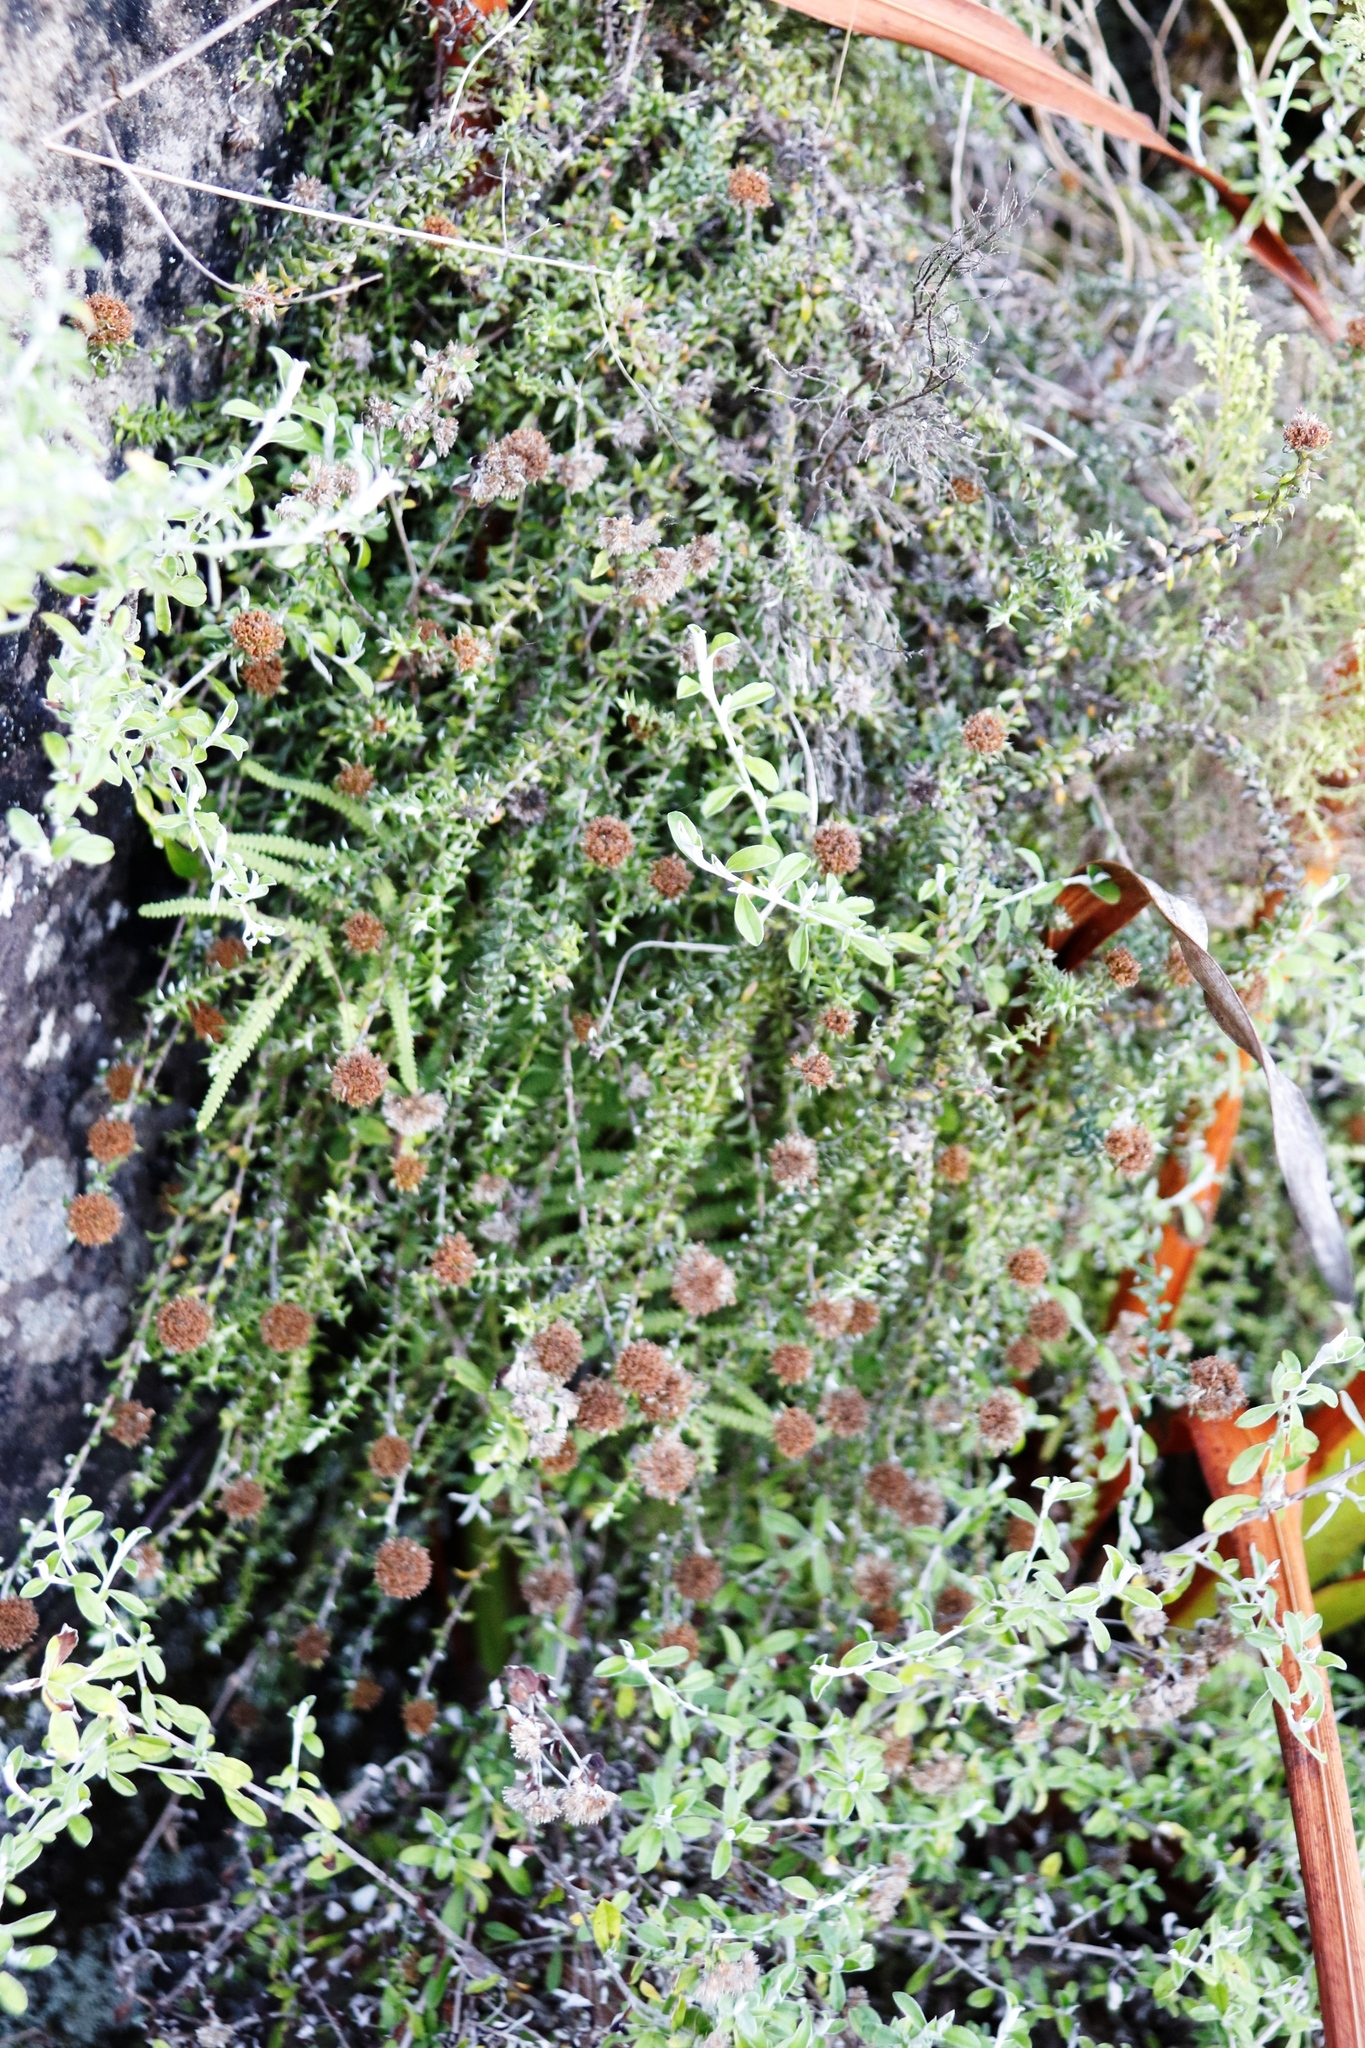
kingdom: Plantae
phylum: Tracheophyta
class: Magnoliopsida
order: Asterales
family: Asteraceae
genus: Stoebe
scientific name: Stoebe prostrata
